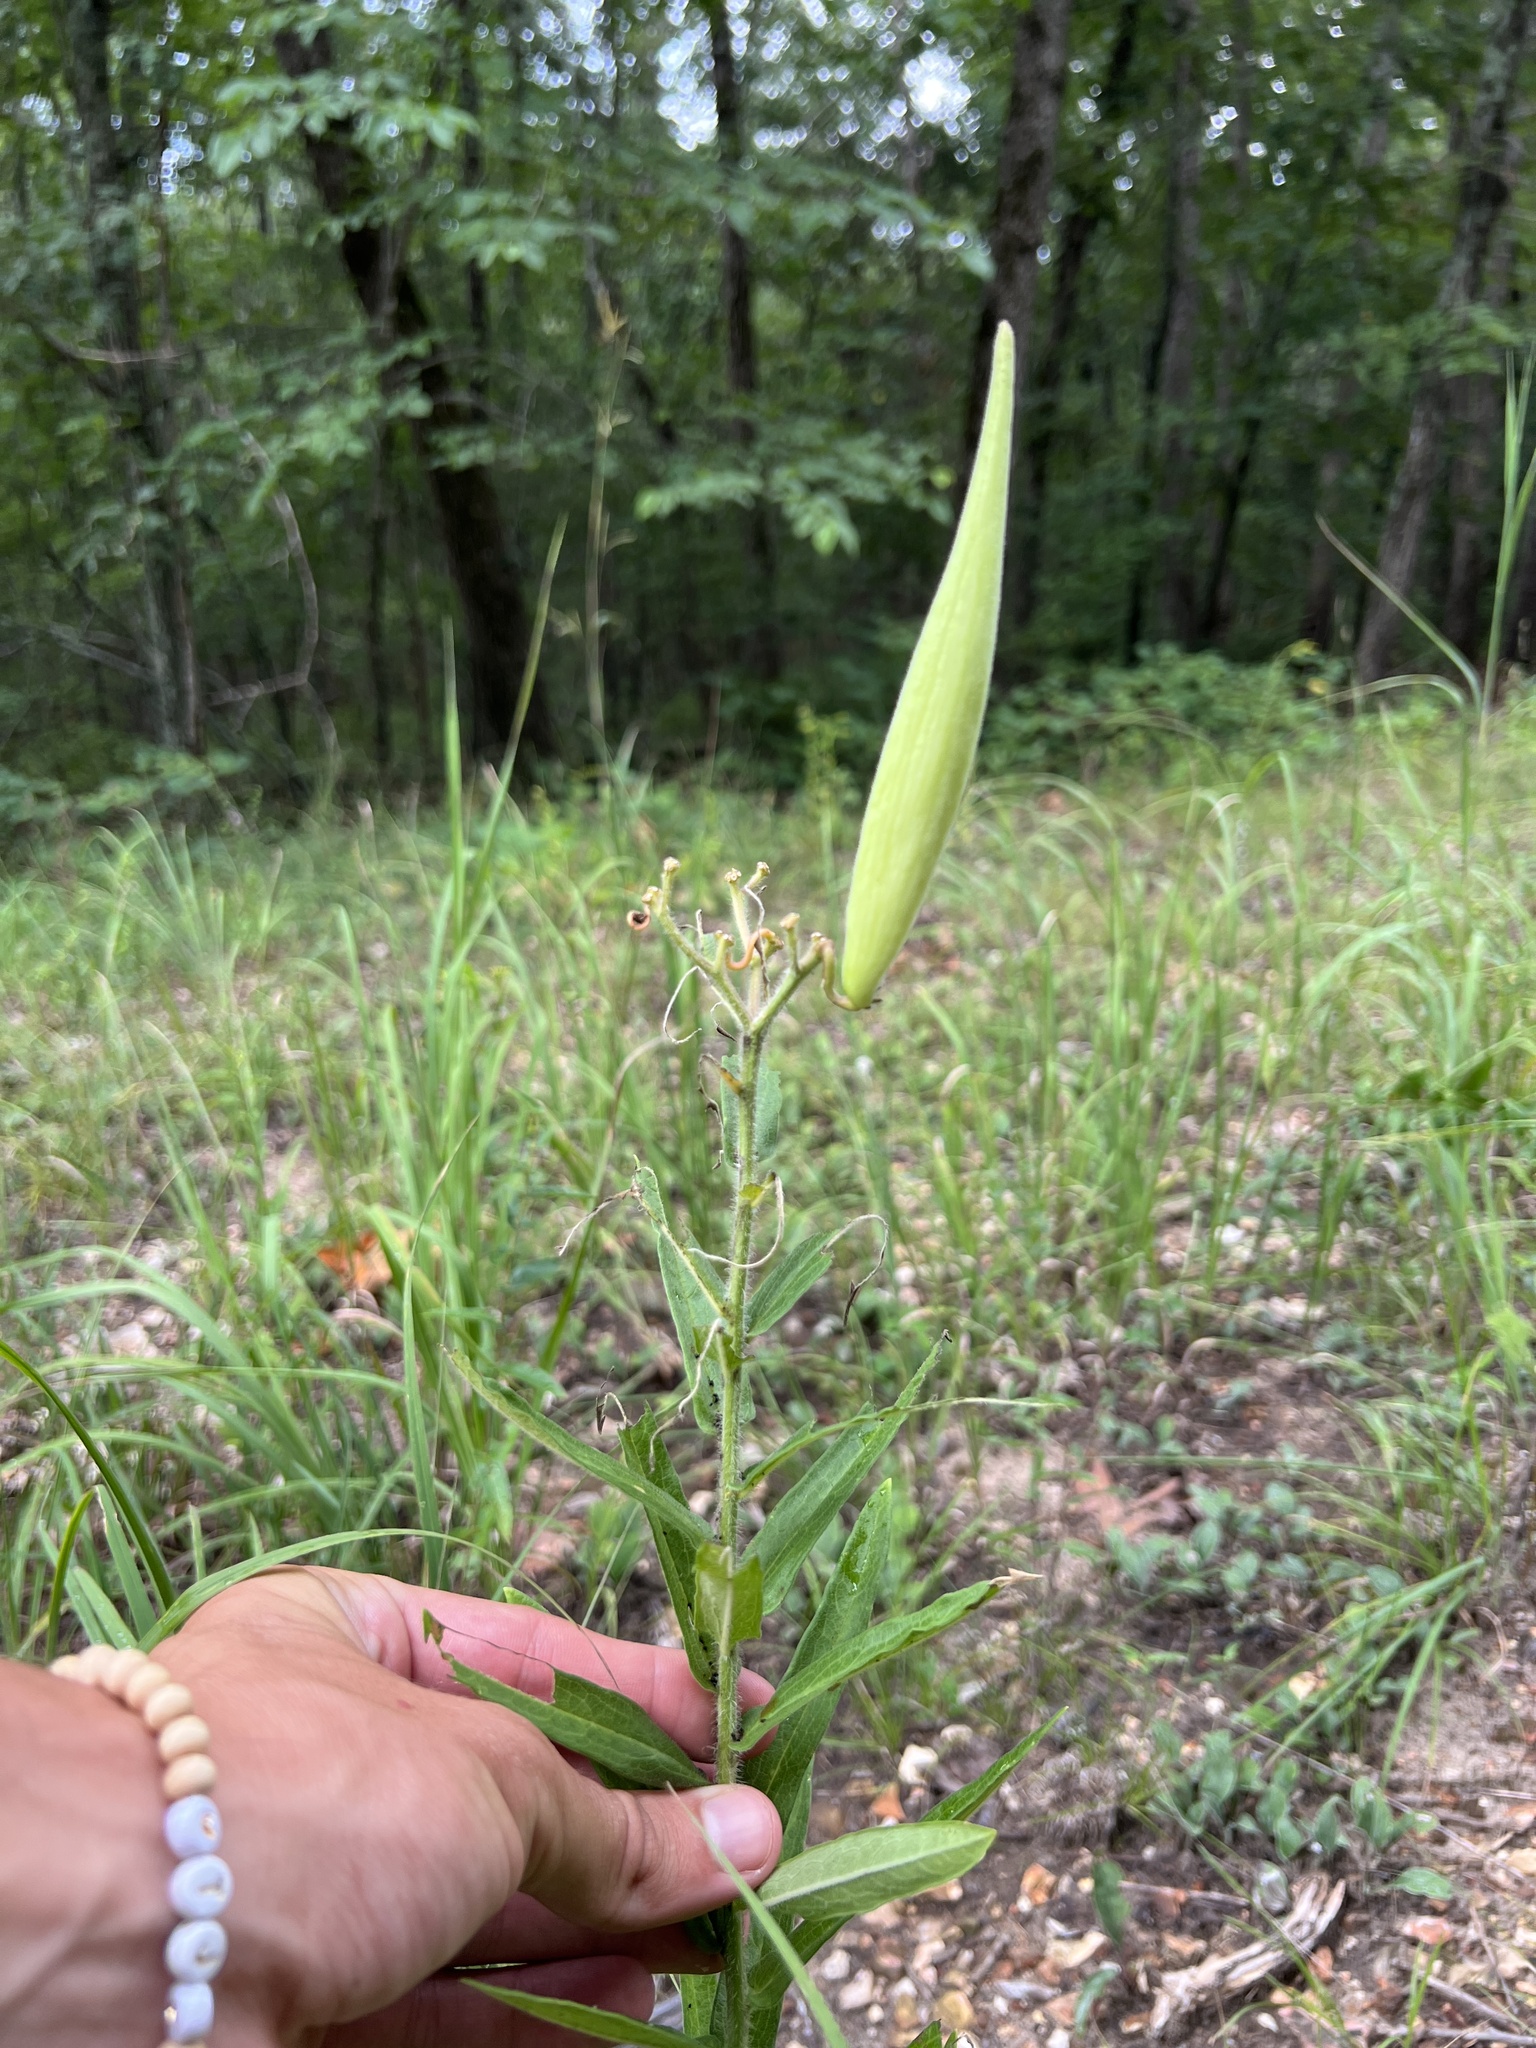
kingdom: Plantae
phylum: Tracheophyta
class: Magnoliopsida
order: Gentianales
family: Apocynaceae
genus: Asclepias
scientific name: Asclepias tuberosa
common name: Butterfly milkweed
